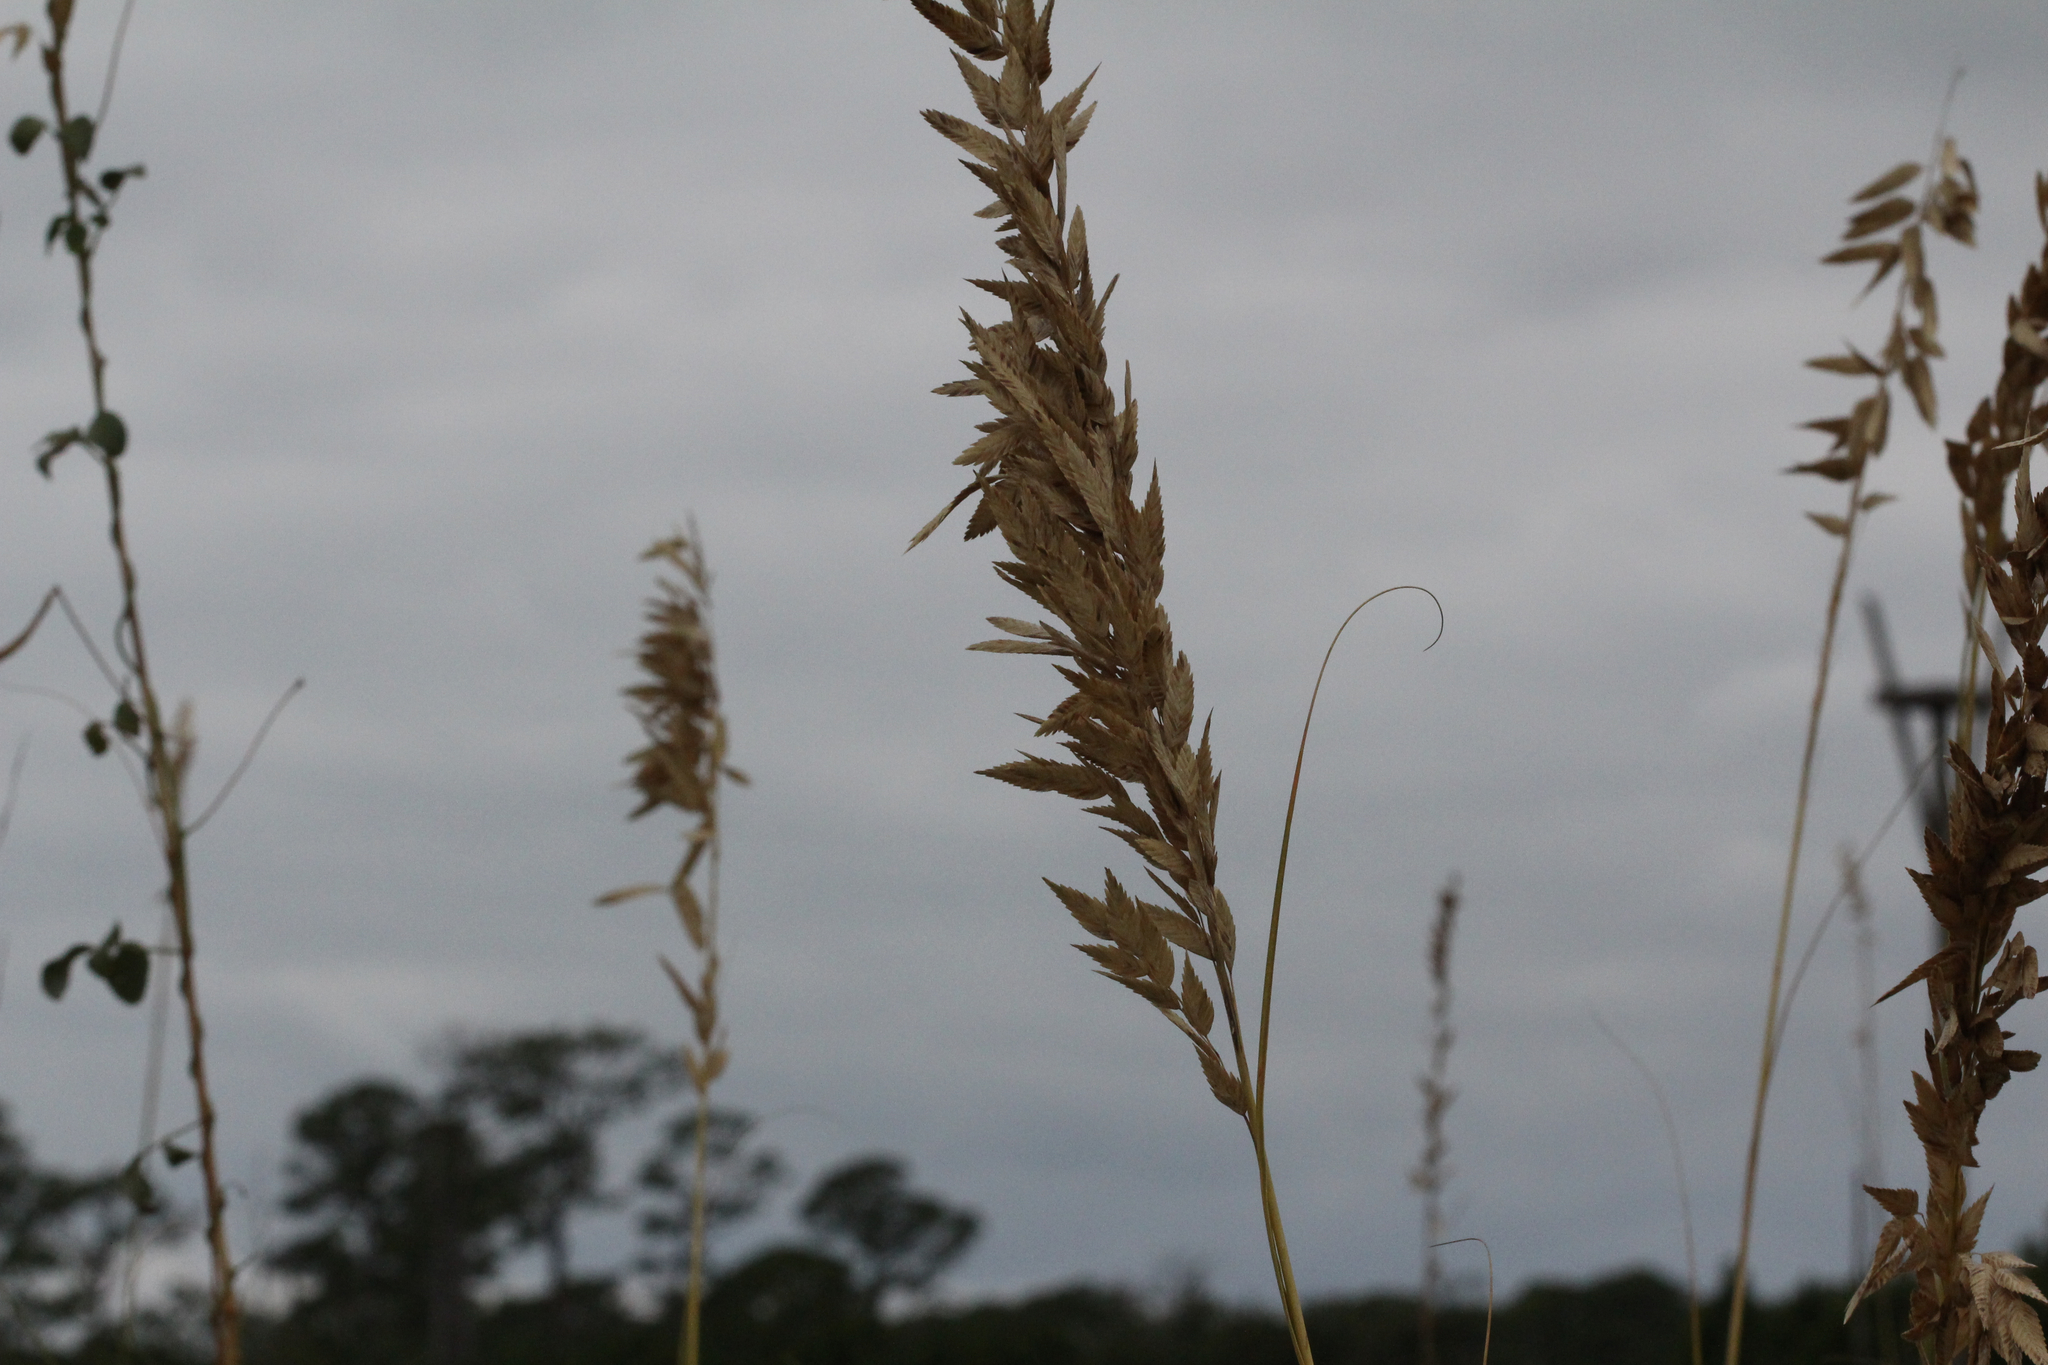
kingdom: Plantae
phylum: Tracheophyta
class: Liliopsida
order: Poales
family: Poaceae
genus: Uniola
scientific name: Uniola paniculata
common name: Seaside-oats
